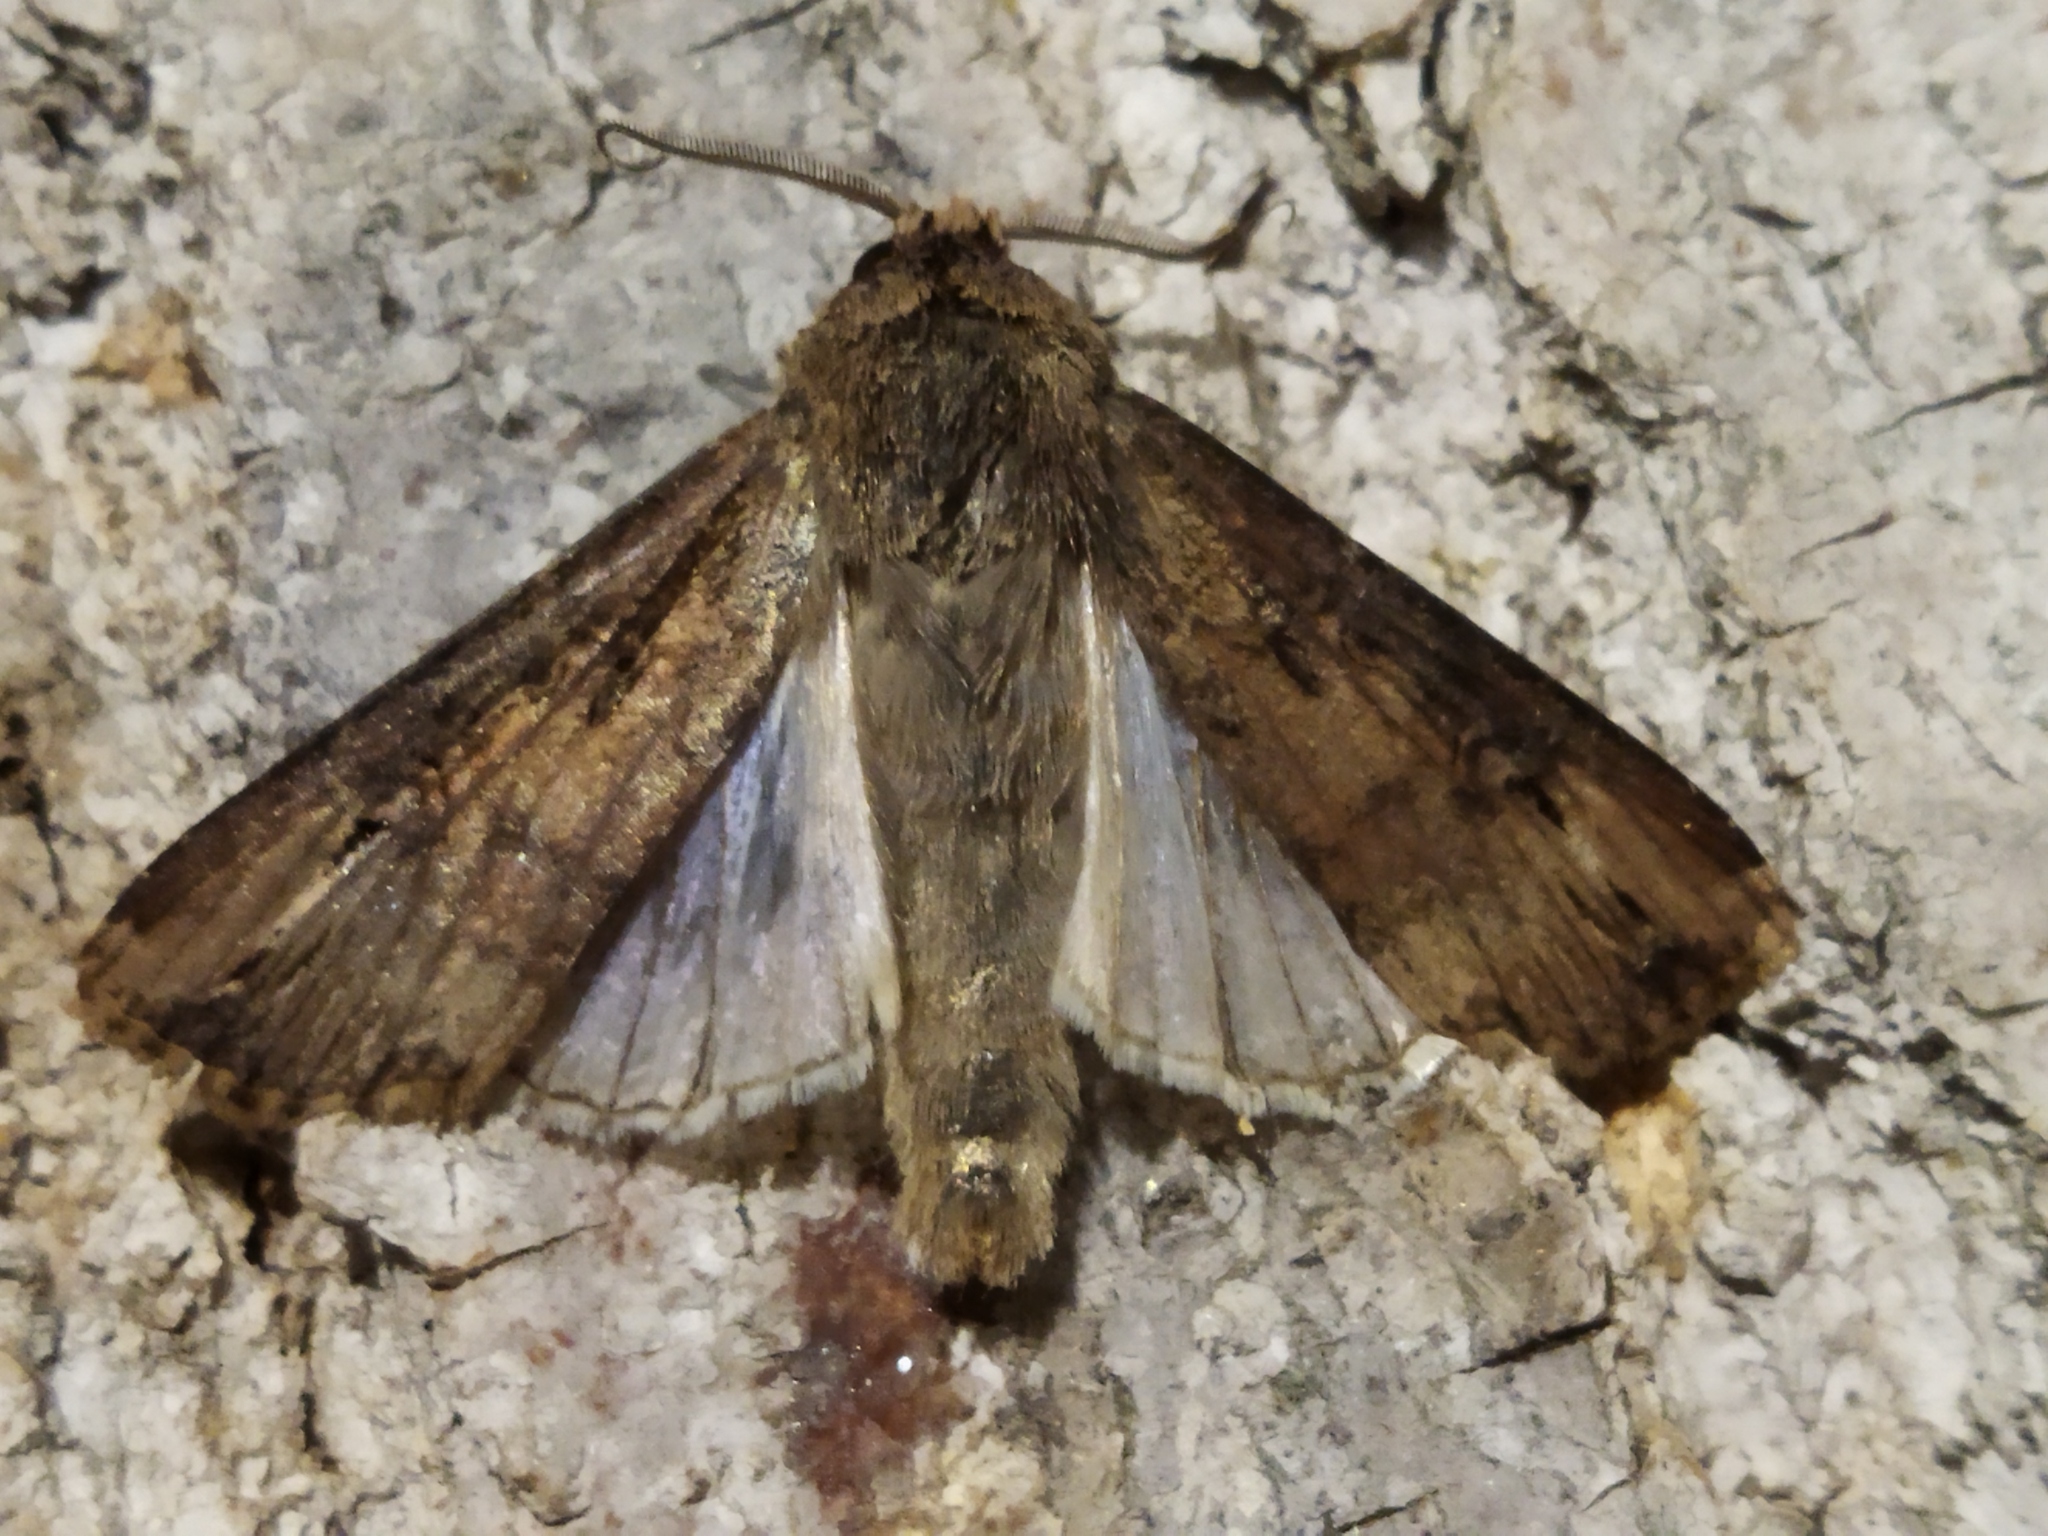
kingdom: Animalia
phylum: Arthropoda
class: Insecta
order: Lepidoptera
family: Noctuidae
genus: Agrotis
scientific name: Agrotis ipsilon
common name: Dark sword-grass
